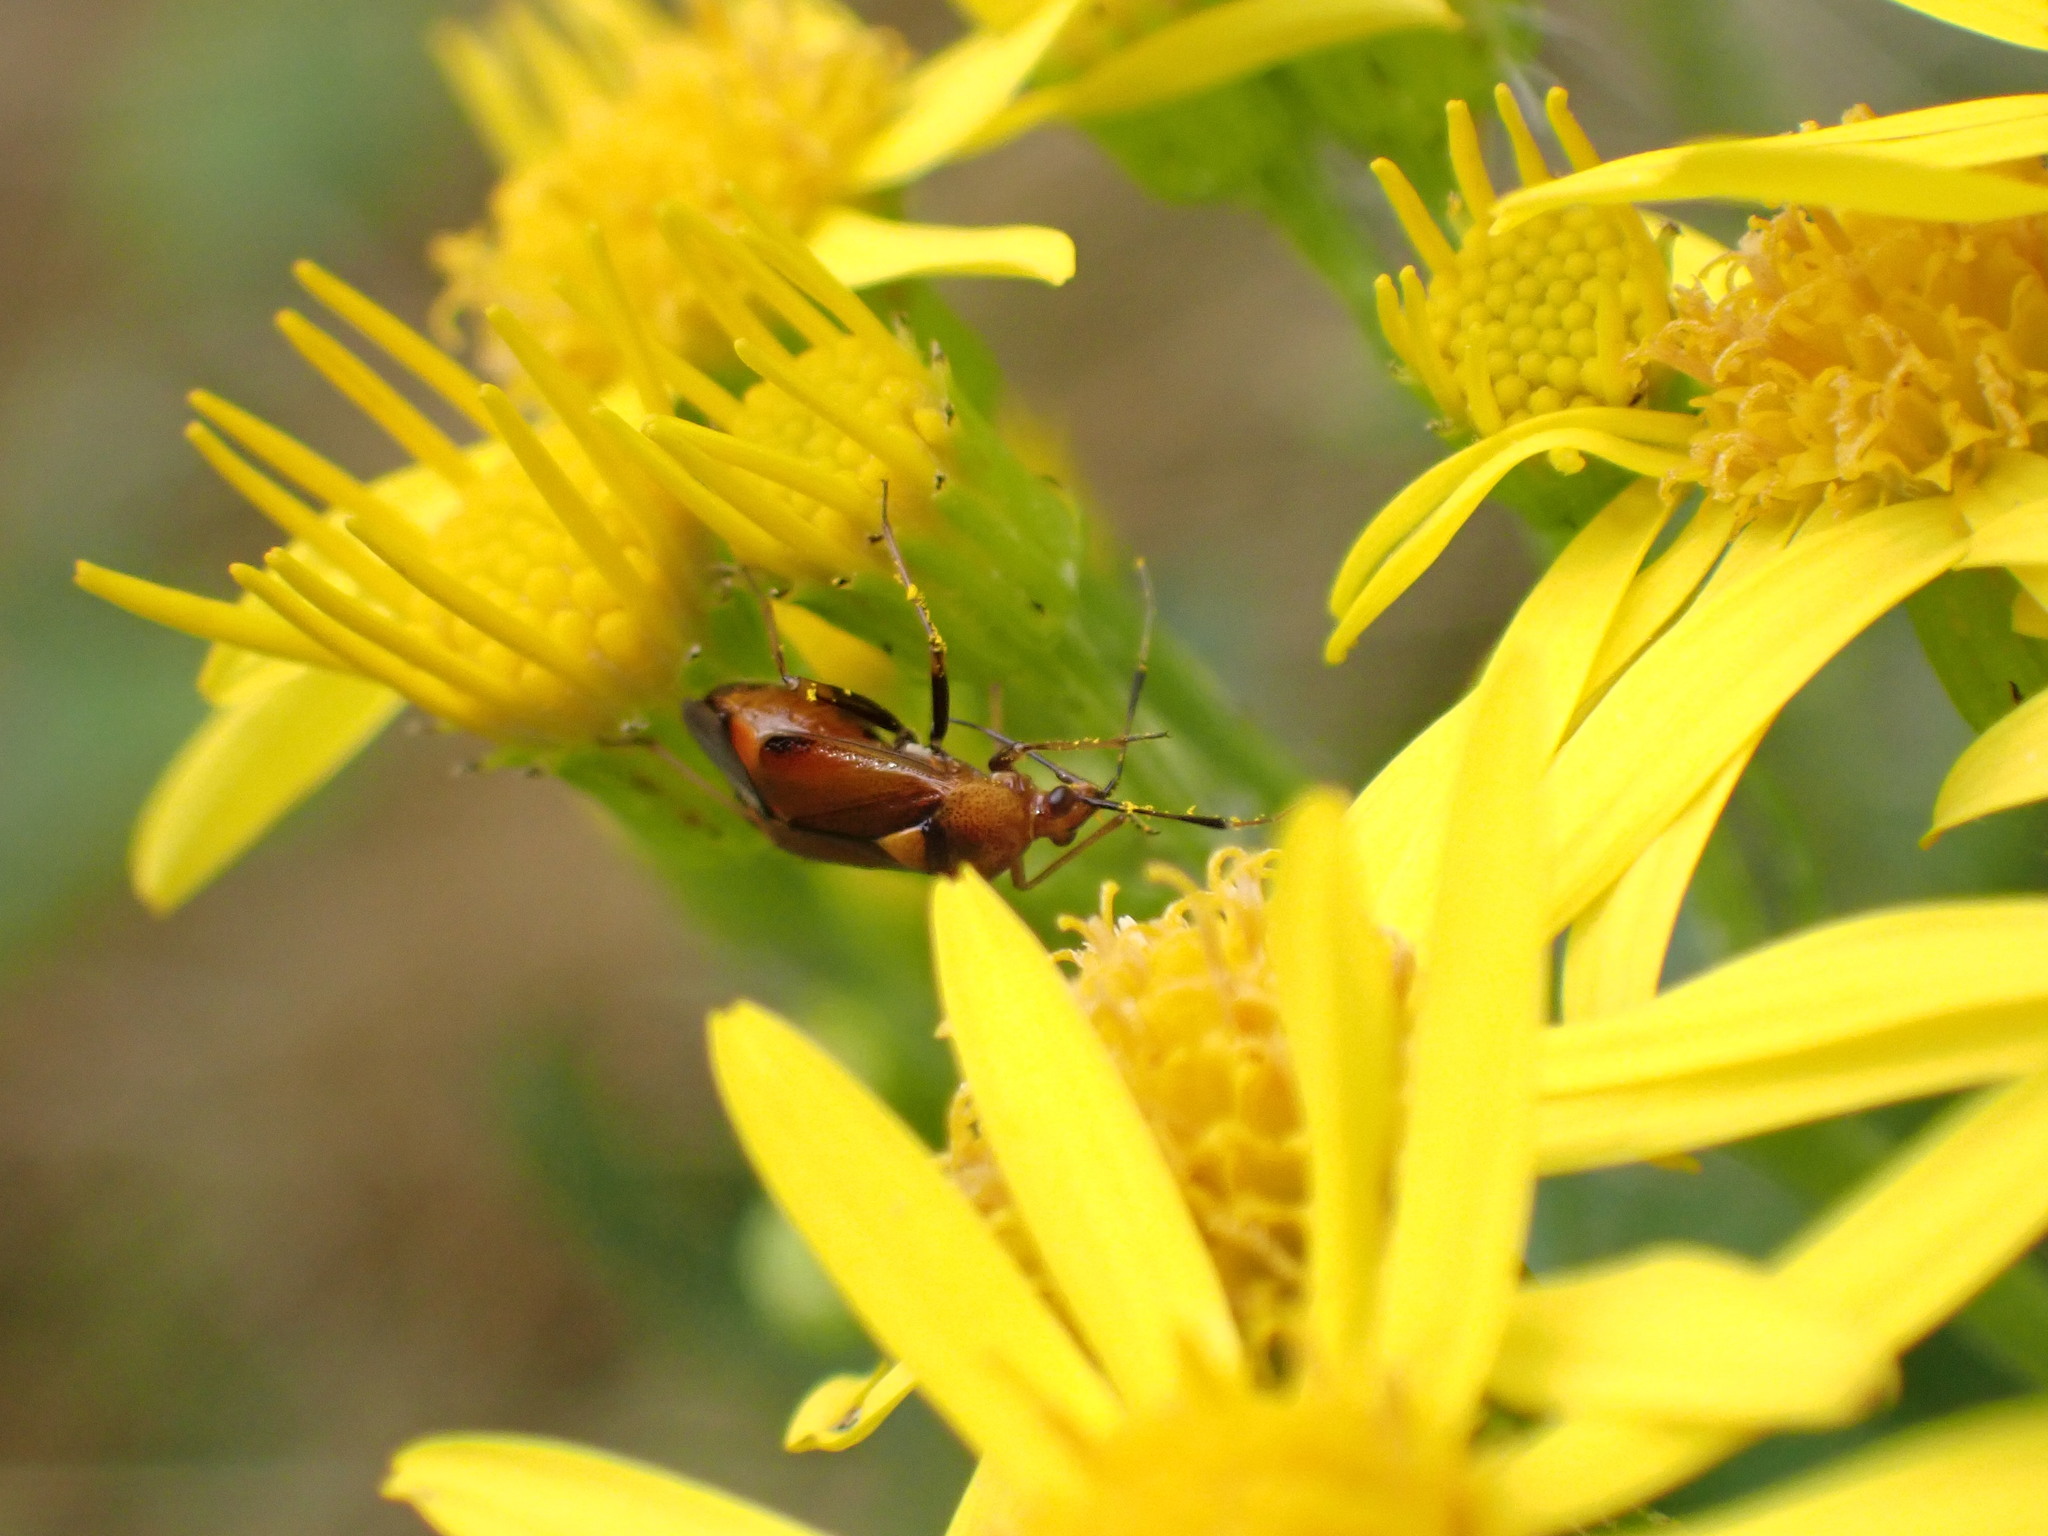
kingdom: Animalia
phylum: Arthropoda
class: Insecta
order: Hemiptera
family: Miridae
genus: Deraeocoris
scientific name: Deraeocoris ruber
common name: Plant bug
